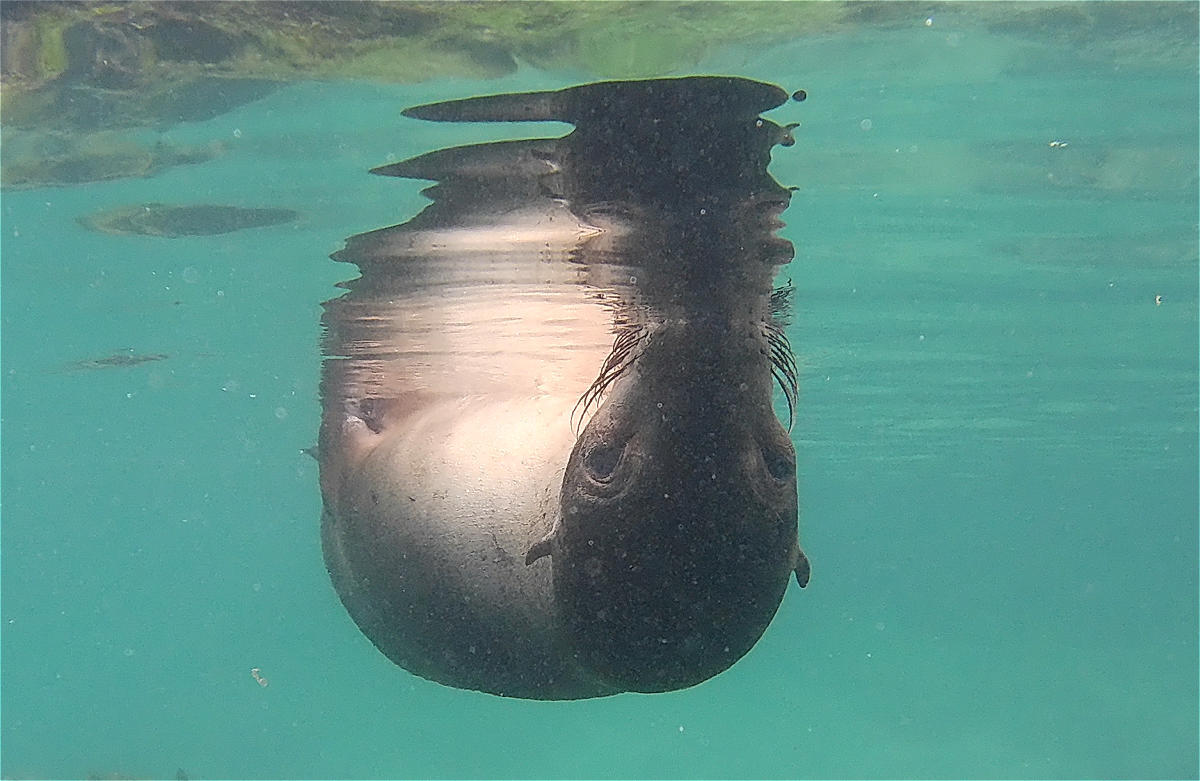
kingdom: Animalia
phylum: Chordata
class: Mammalia
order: Carnivora
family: Otariidae
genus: Zalophus
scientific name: Zalophus wollebaeki
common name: Galapagos sea lion
